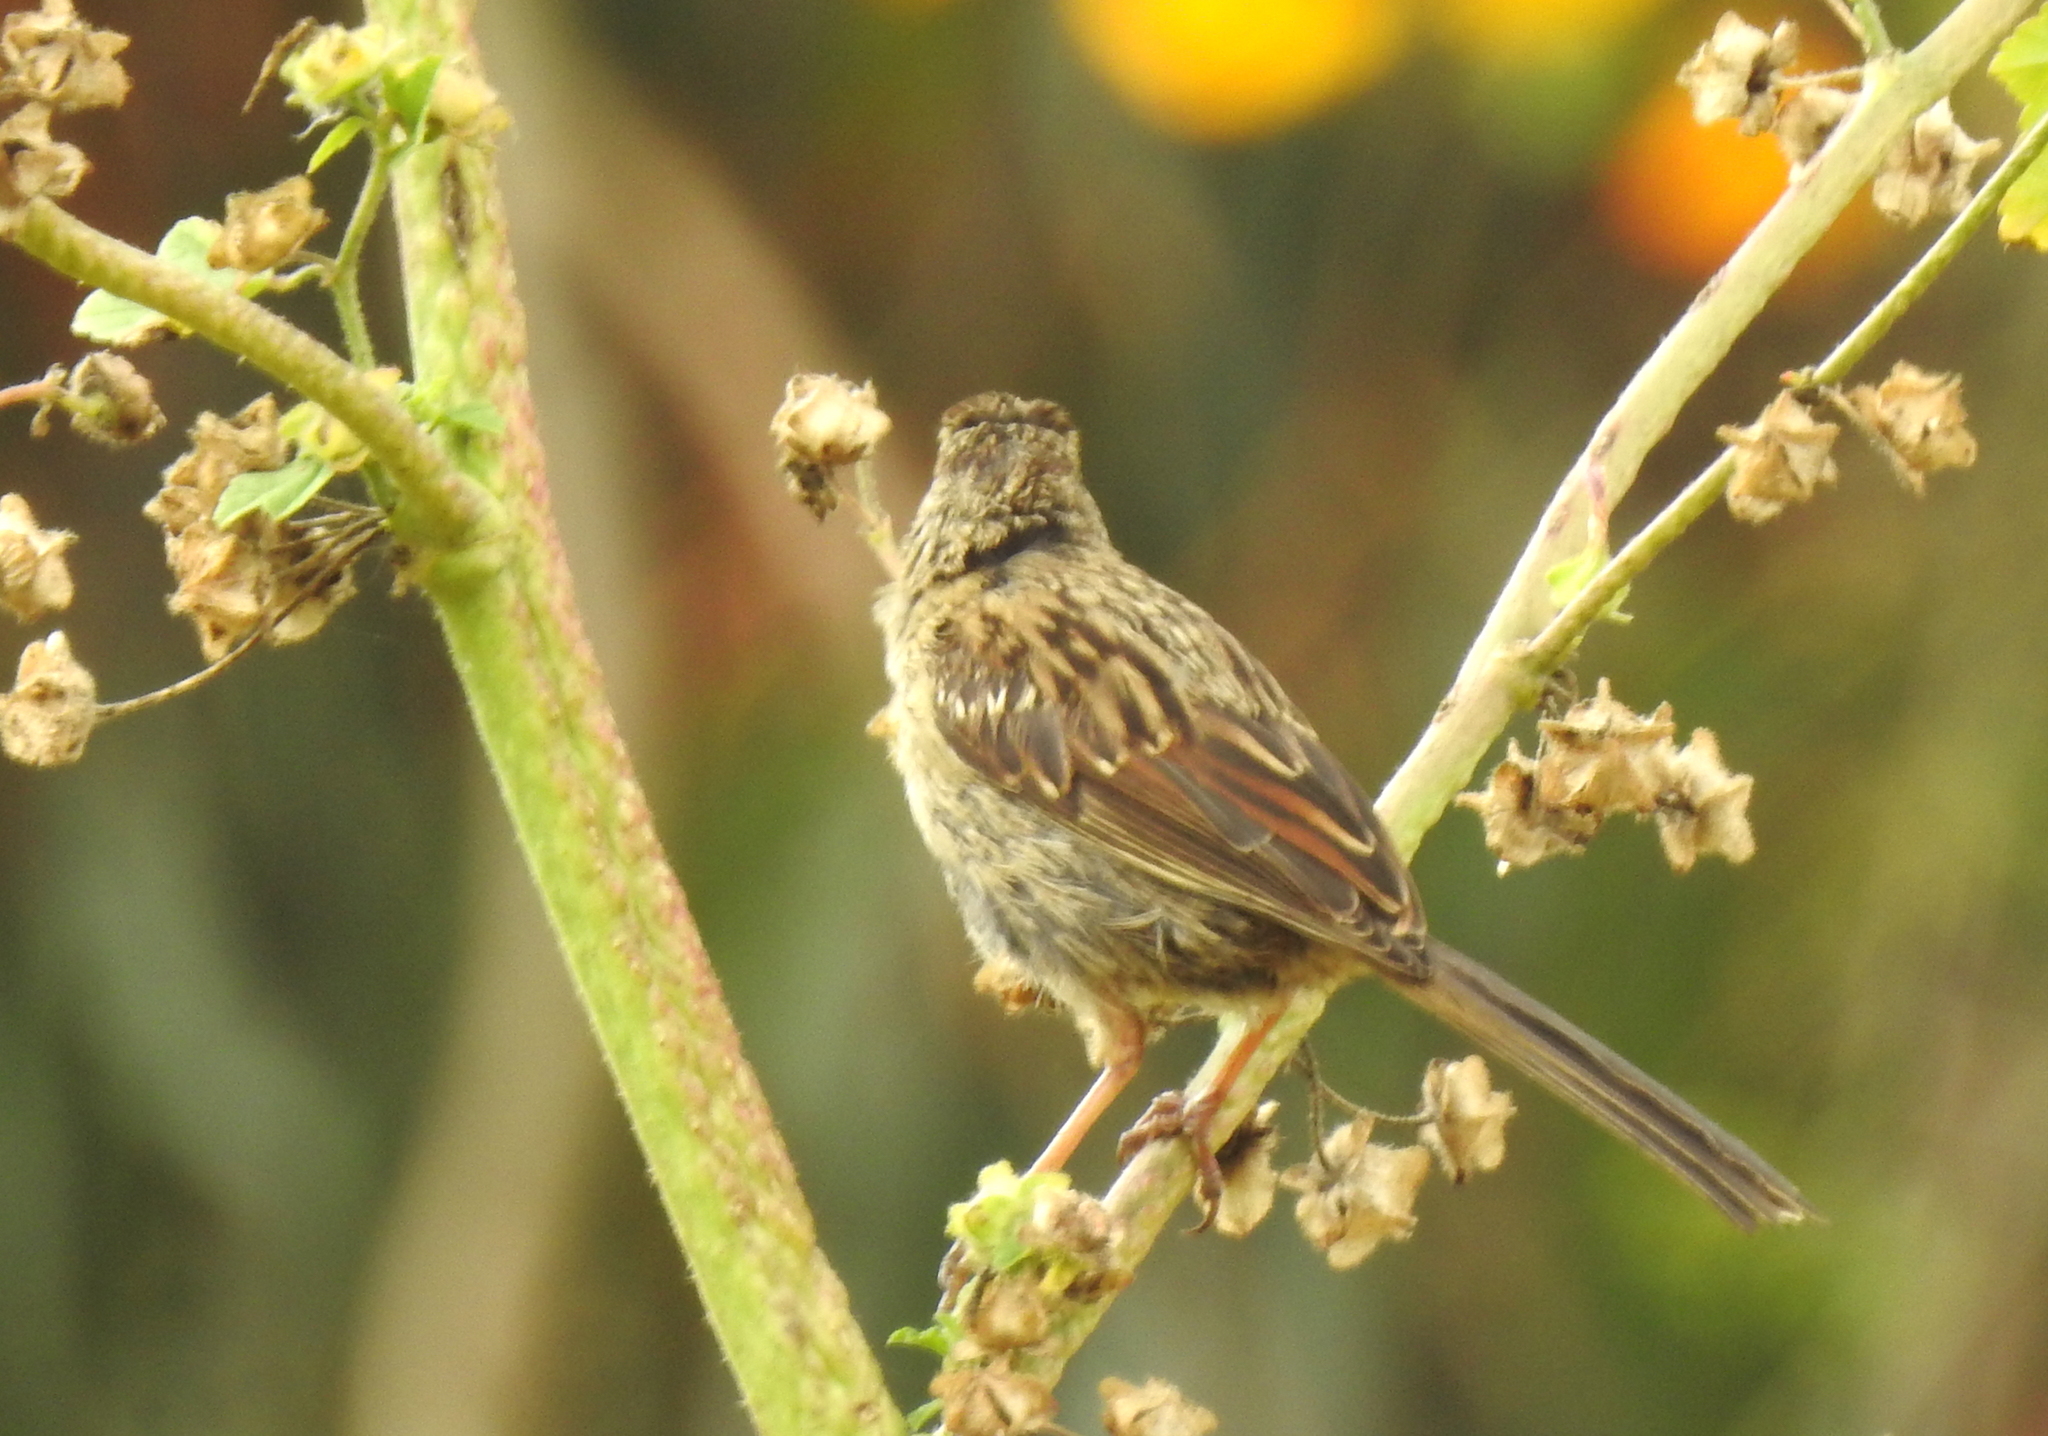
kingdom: Animalia
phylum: Chordata
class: Aves
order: Passeriformes
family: Passerellidae
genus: Zonotrichia
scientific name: Zonotrichia leucophrys
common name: White-crowned sparrow
